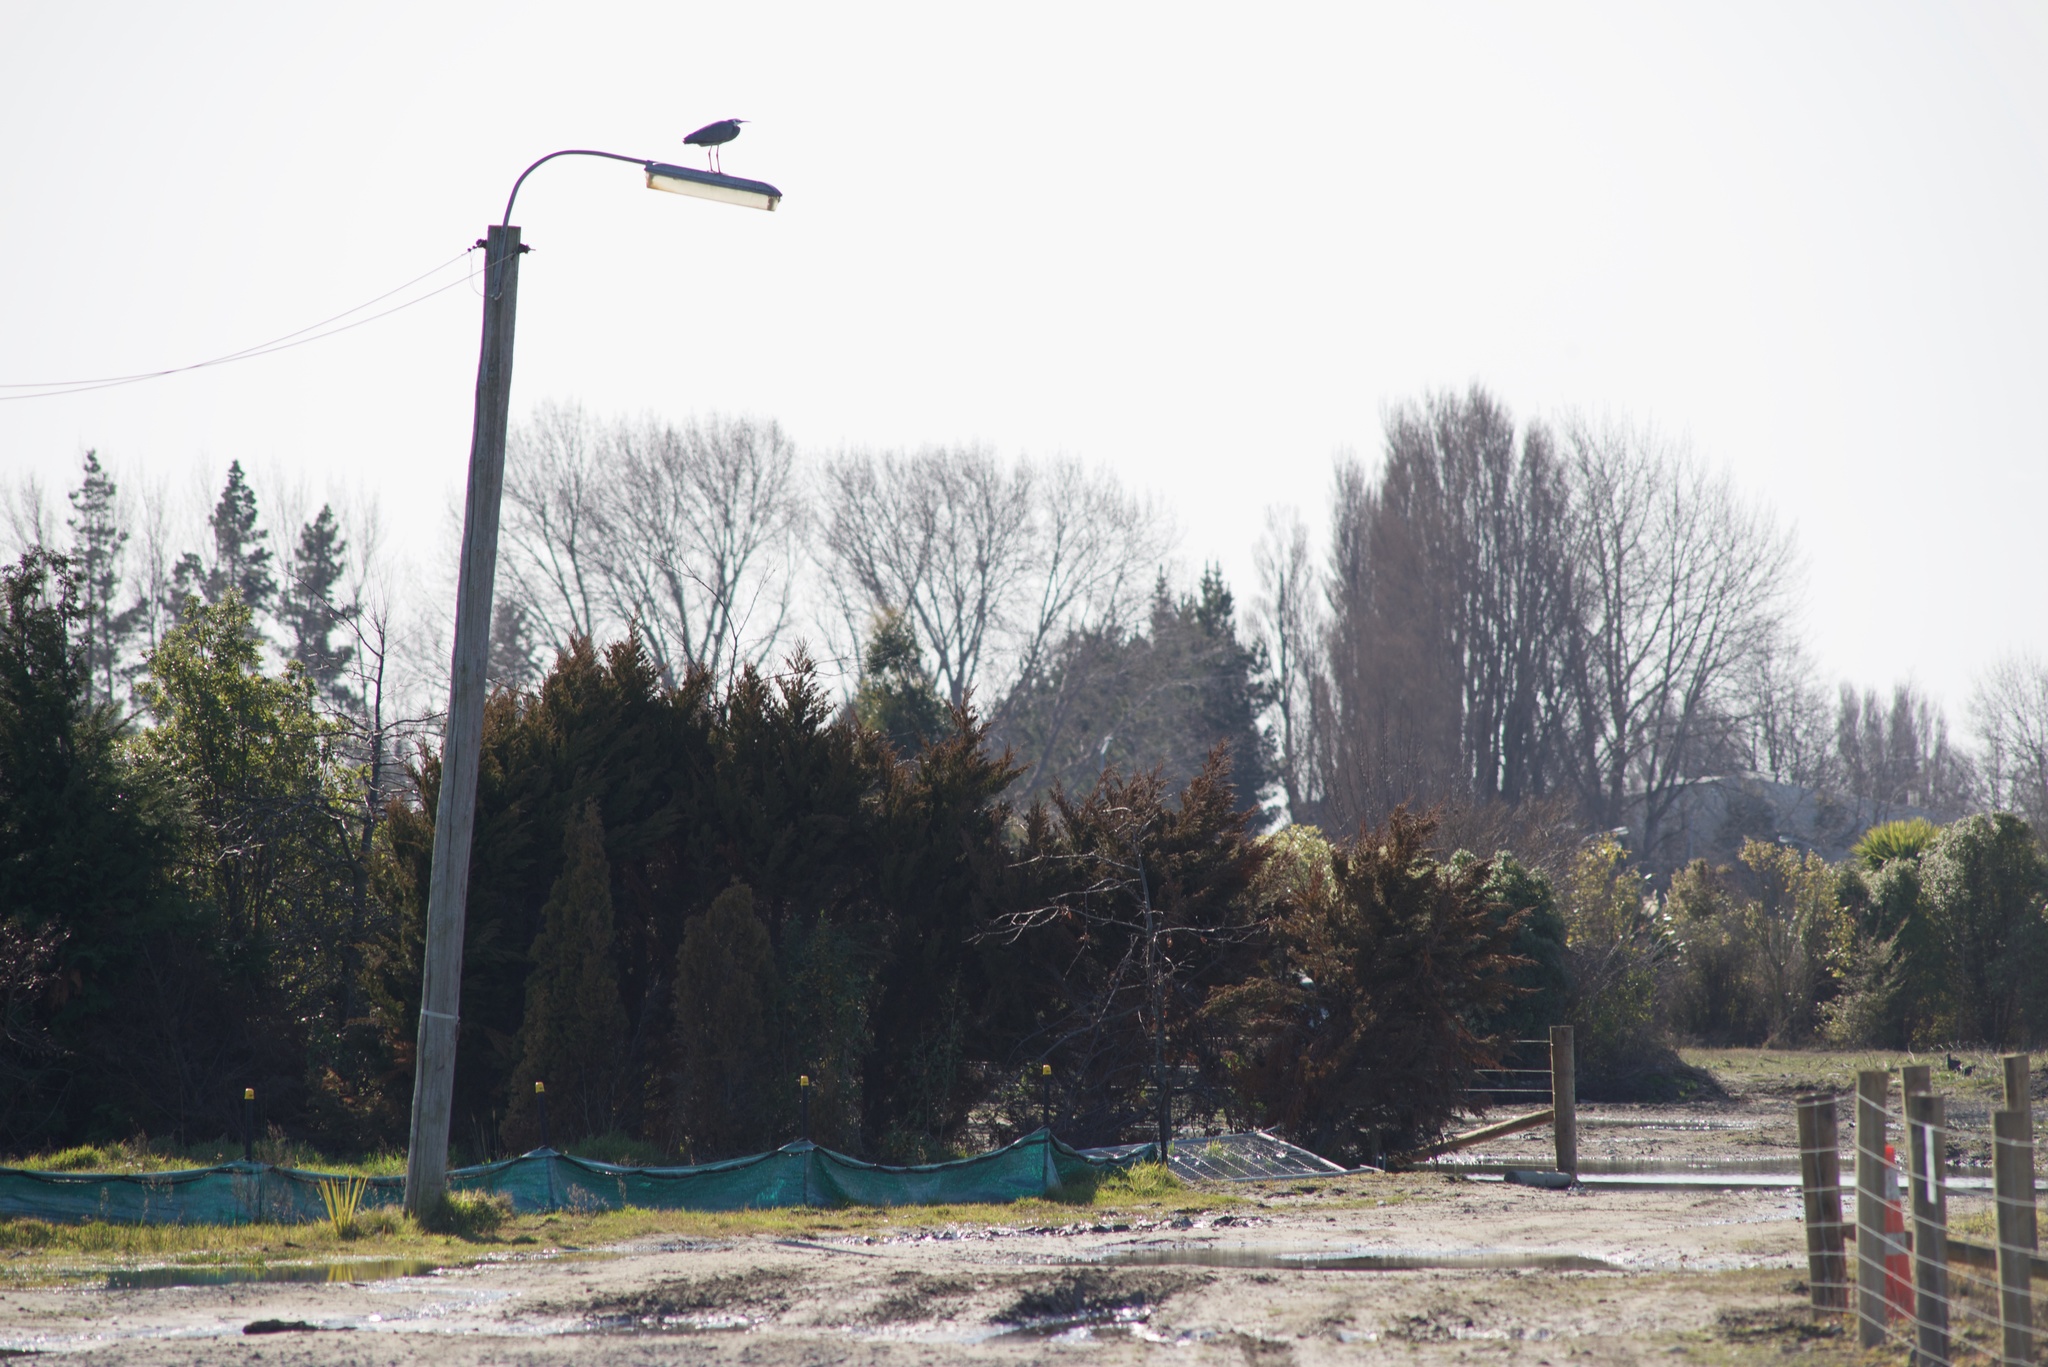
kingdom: Animalia
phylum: Chordata
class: Aves
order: Pelecaniformes
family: Ardeidae
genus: Egretta
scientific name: Egretta novaehollandiae
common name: White-faced heron
